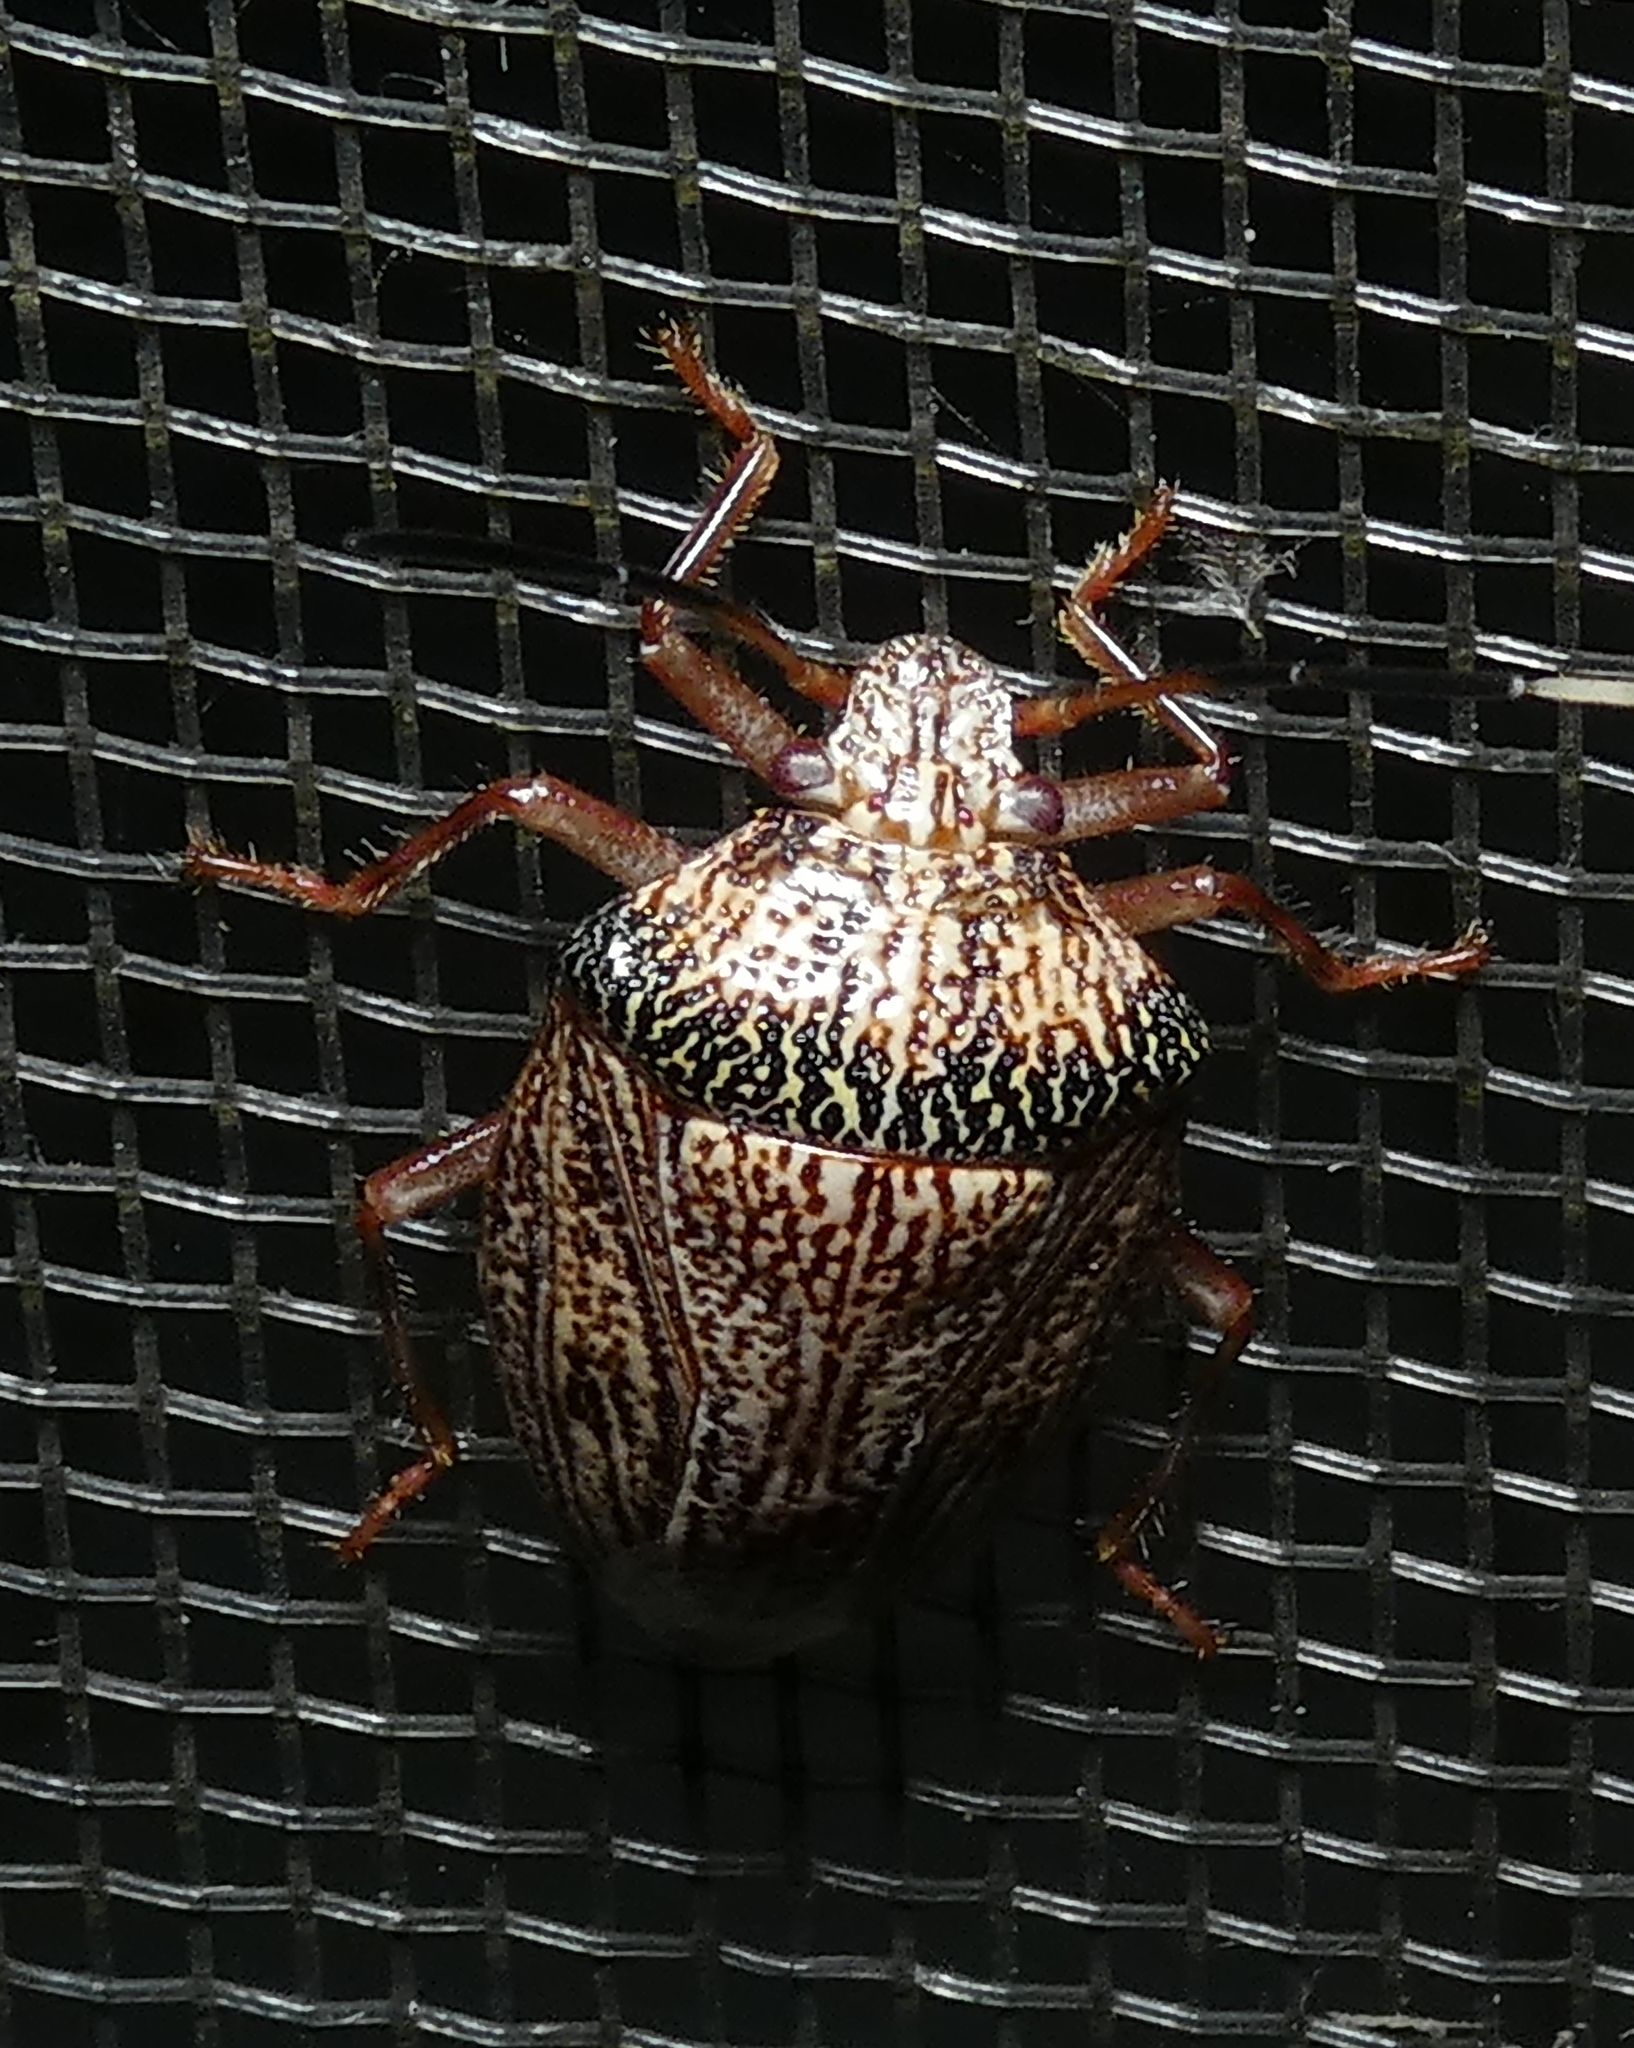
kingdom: Animalia
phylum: Arthropoda
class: Insecta
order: Hemiptera
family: Pentatomidae
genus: Antiteuchus
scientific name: Antiteuchus macraspis
